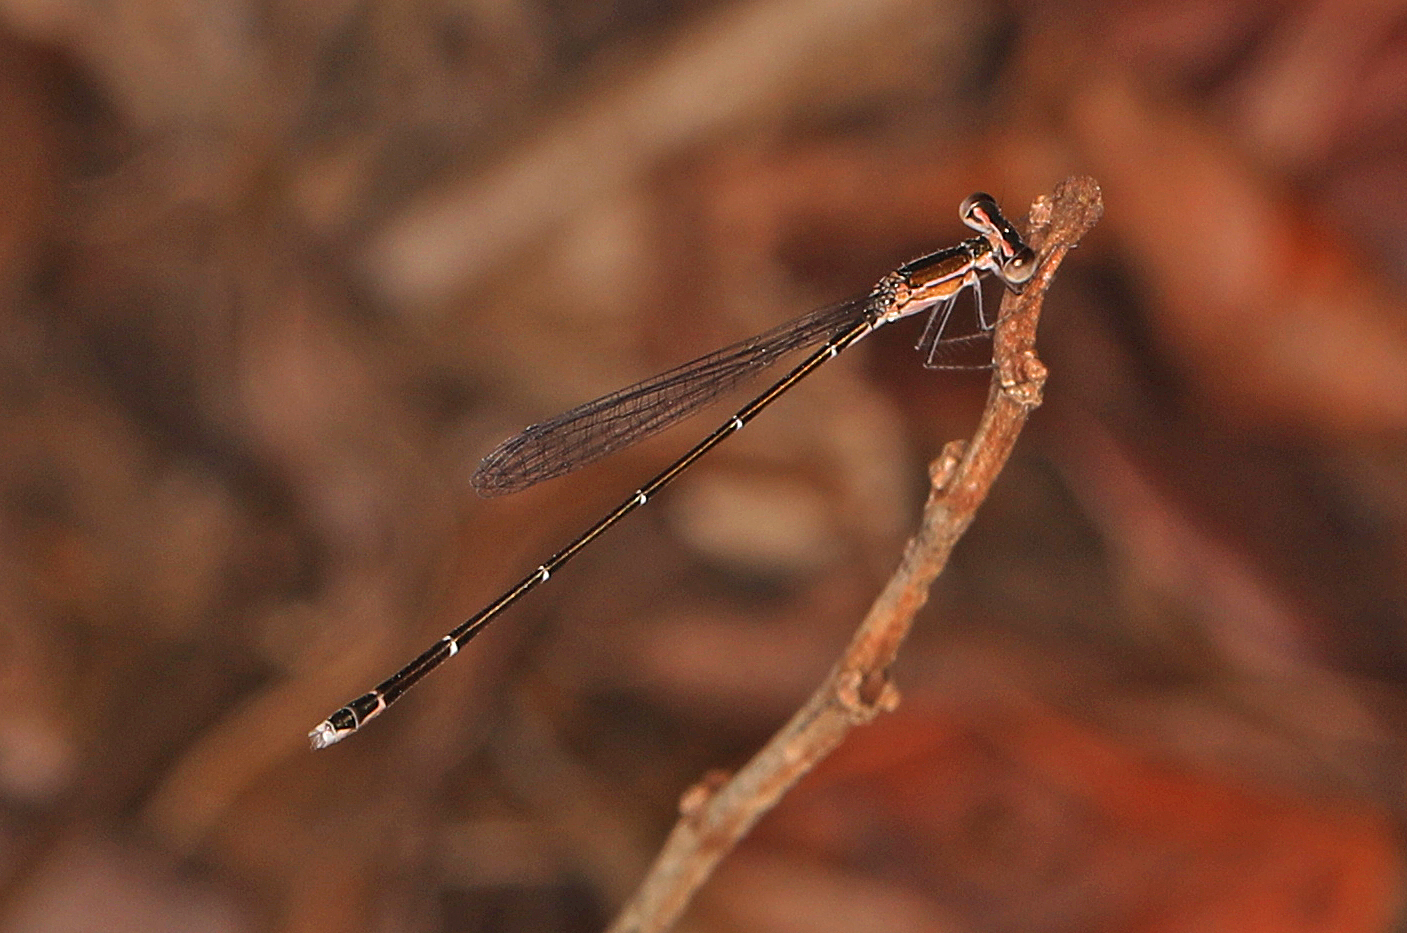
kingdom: Animalia
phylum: Arthropoda
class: Insecta
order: Odonata
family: Coenagrionidae
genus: Nehalennia
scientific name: Nehalennia pallidula
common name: Everglades sprite
